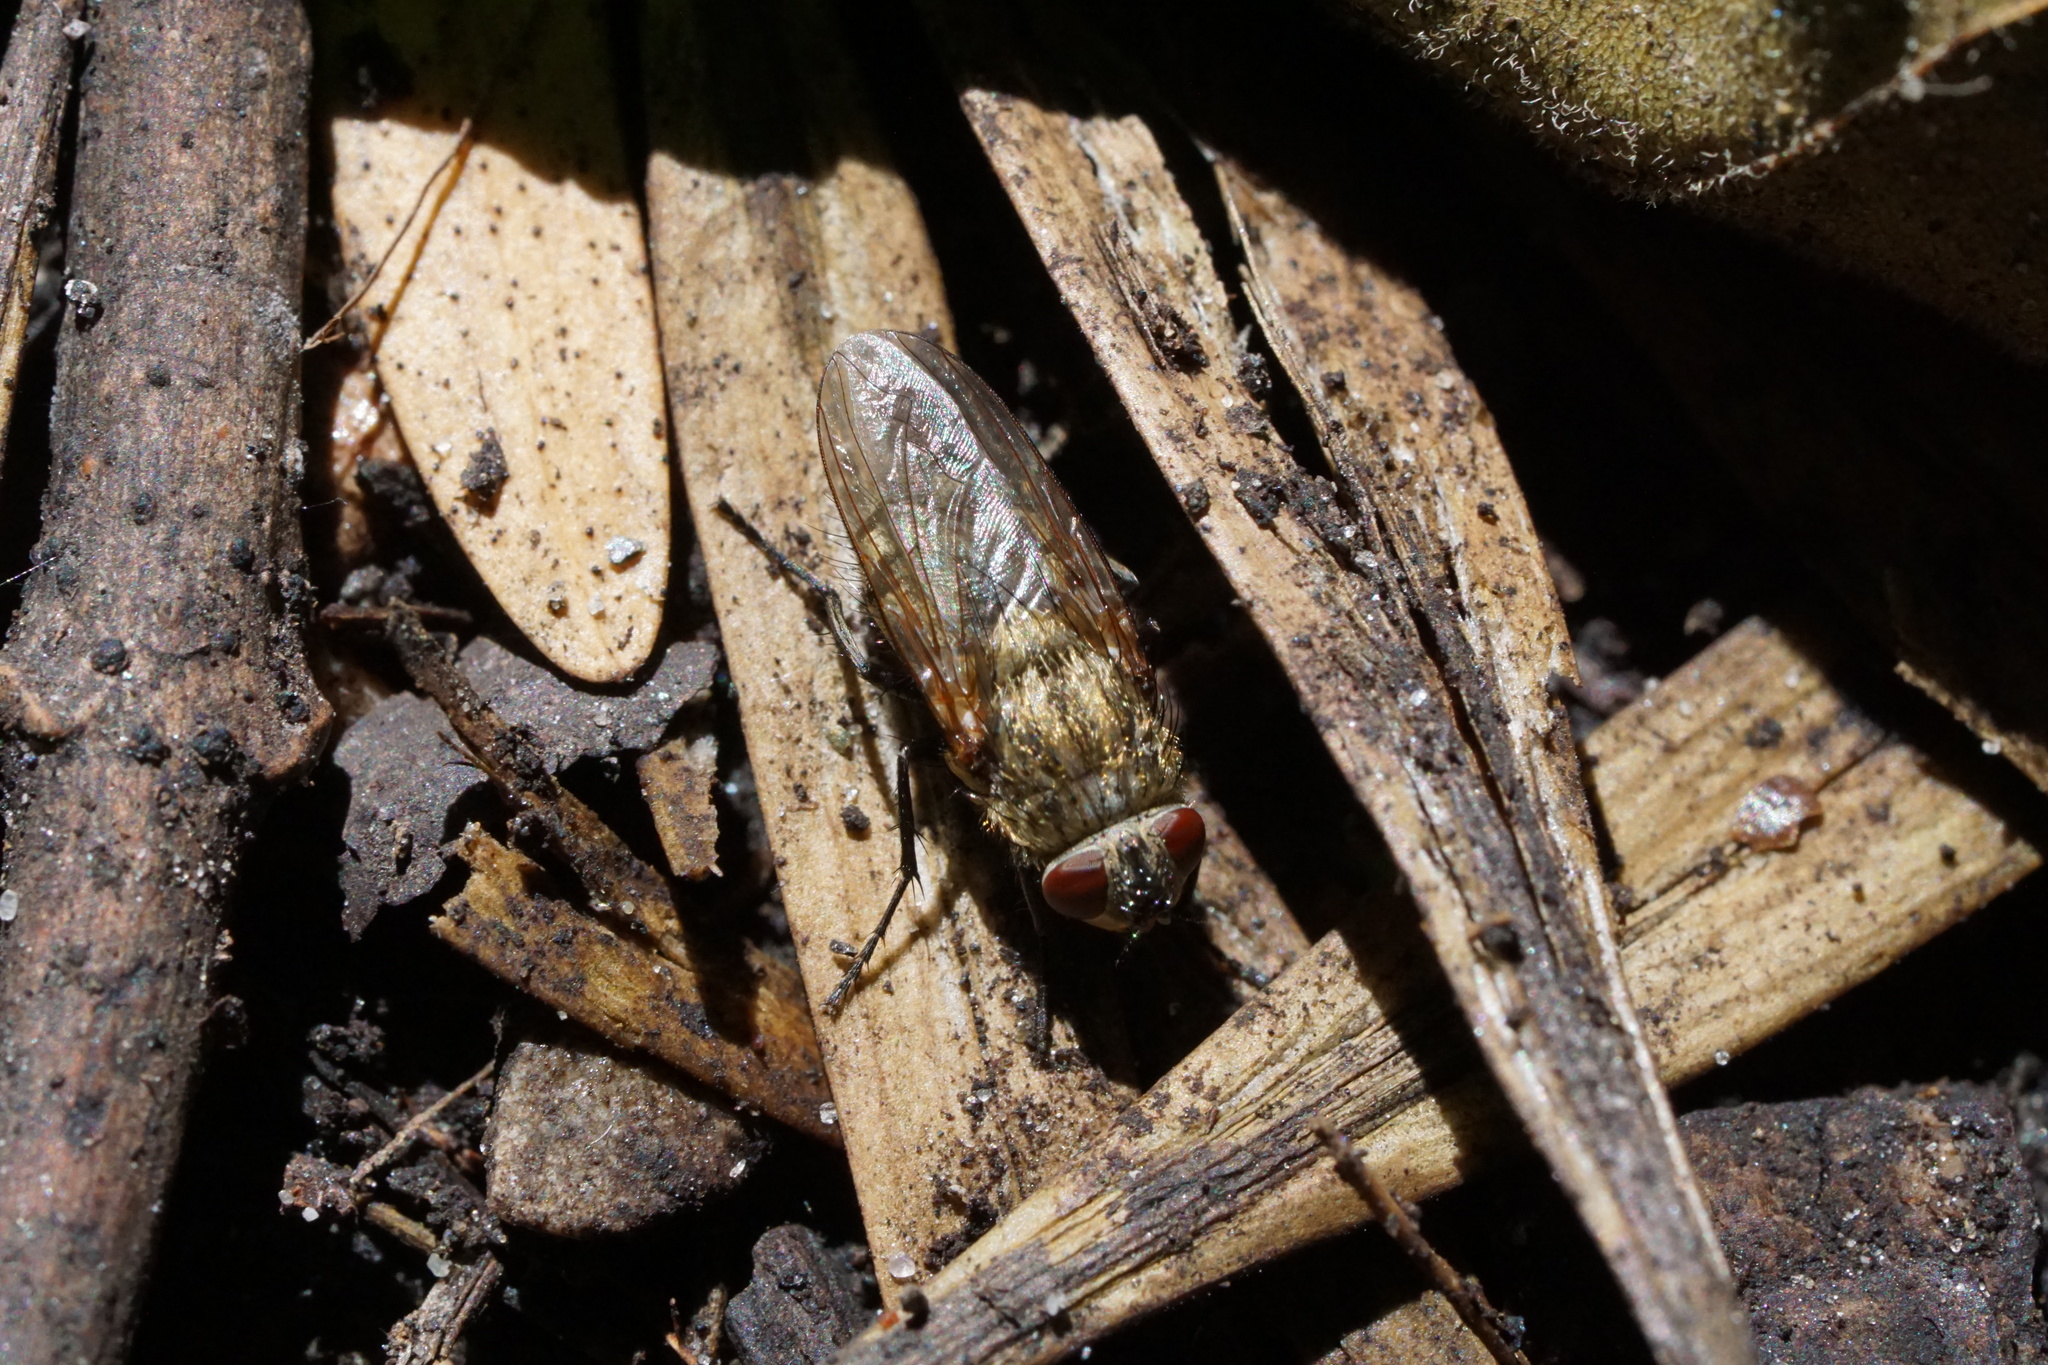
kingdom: Animalia
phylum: Arthropoda
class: Insecta
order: Diptera
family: Polleniidae
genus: Pollenia
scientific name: Pollenia
